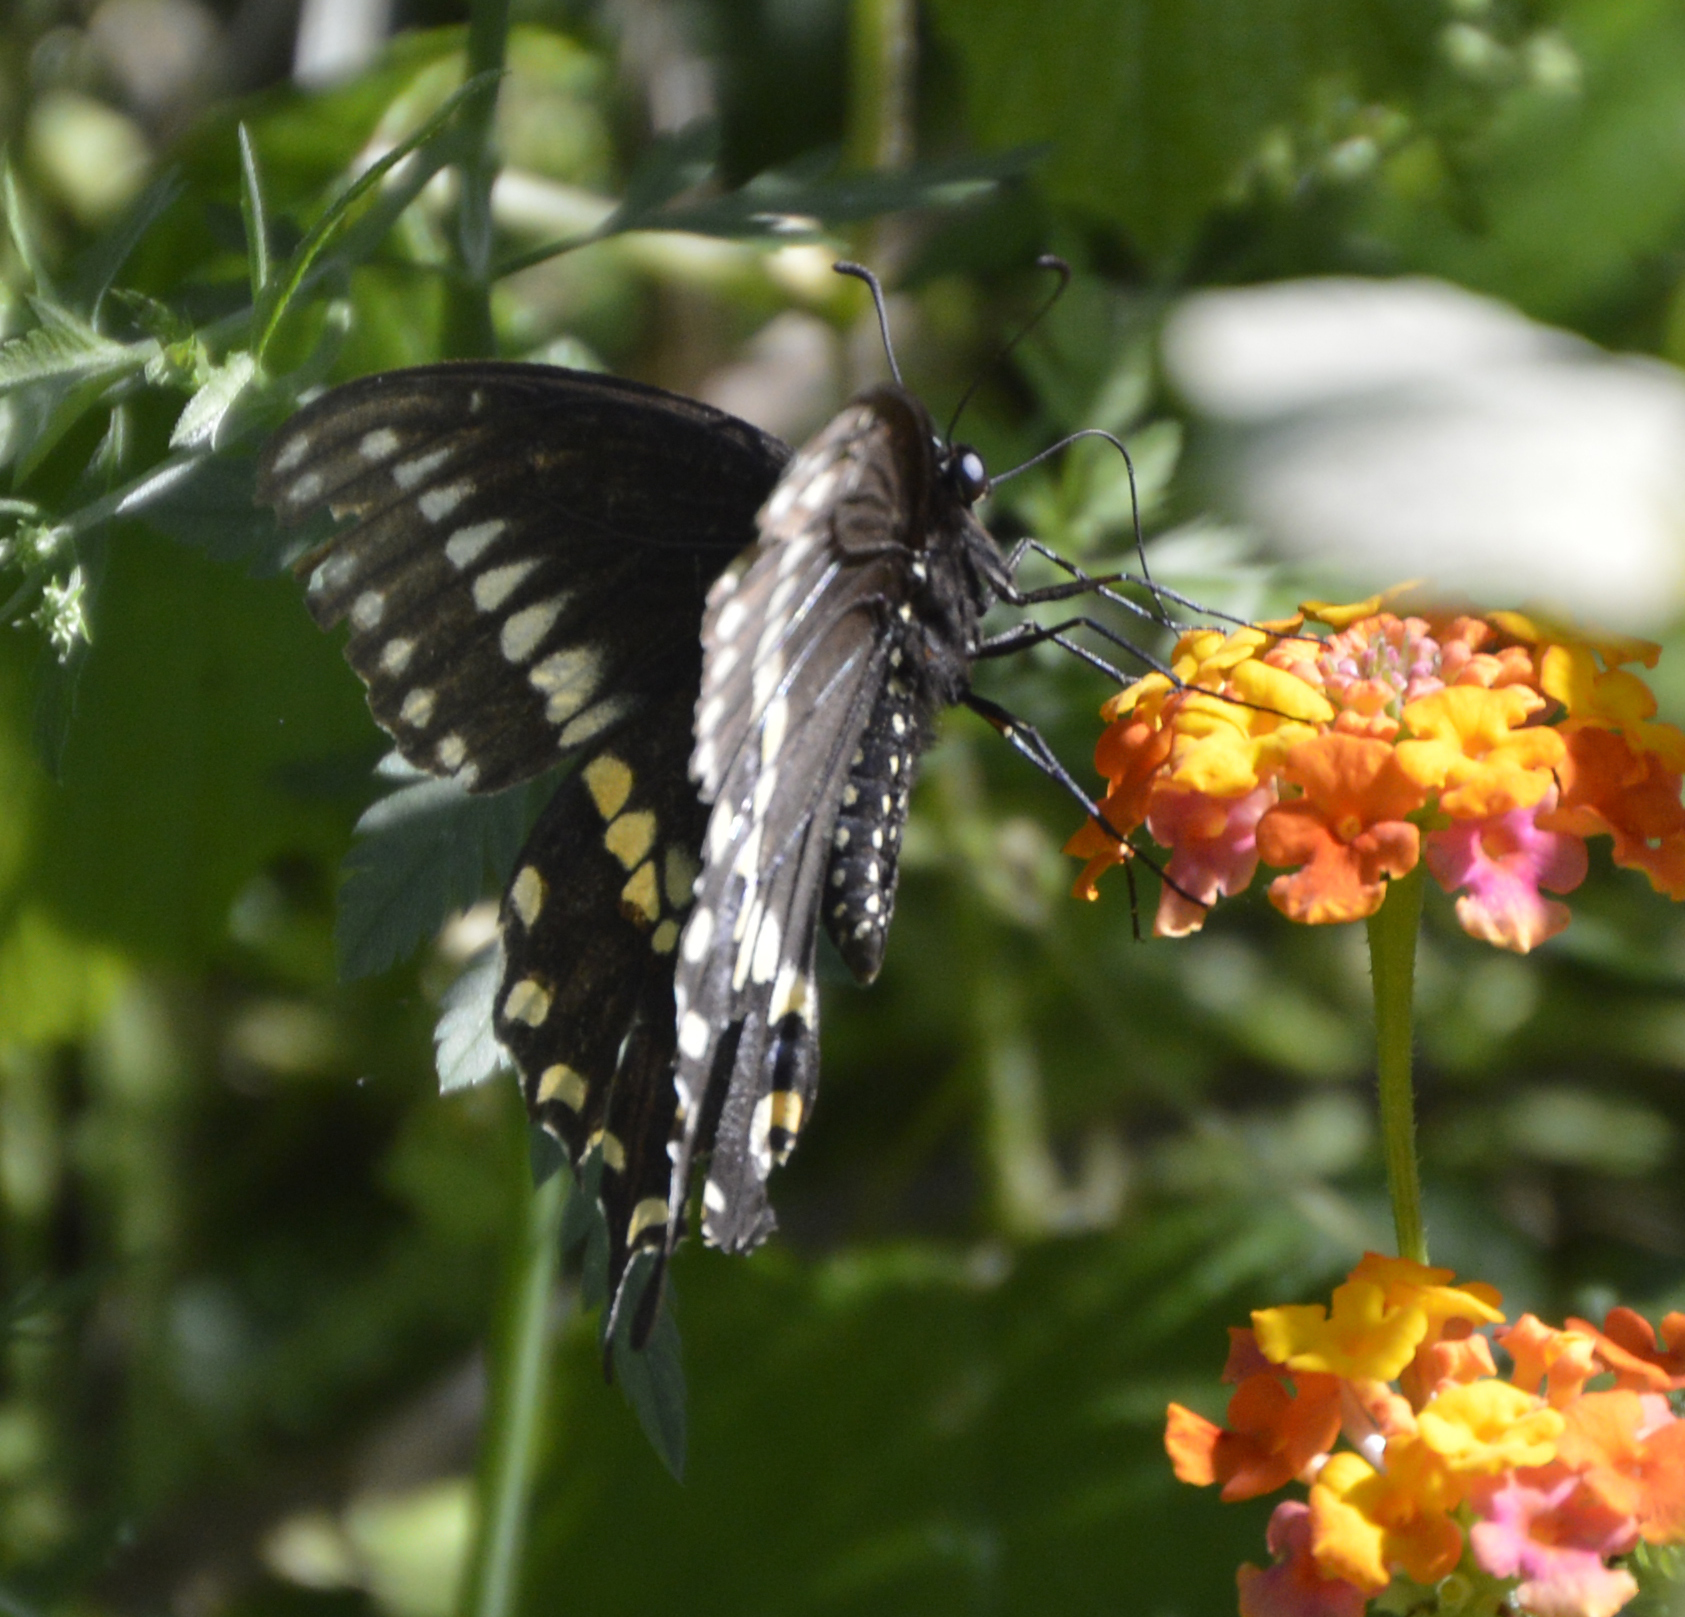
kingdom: Animalia
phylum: Arthropoda
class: Insecta
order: Lepidoptera
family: Papilionidae
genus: Papilio
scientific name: Papilio polyxenes
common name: Black swallowtail
